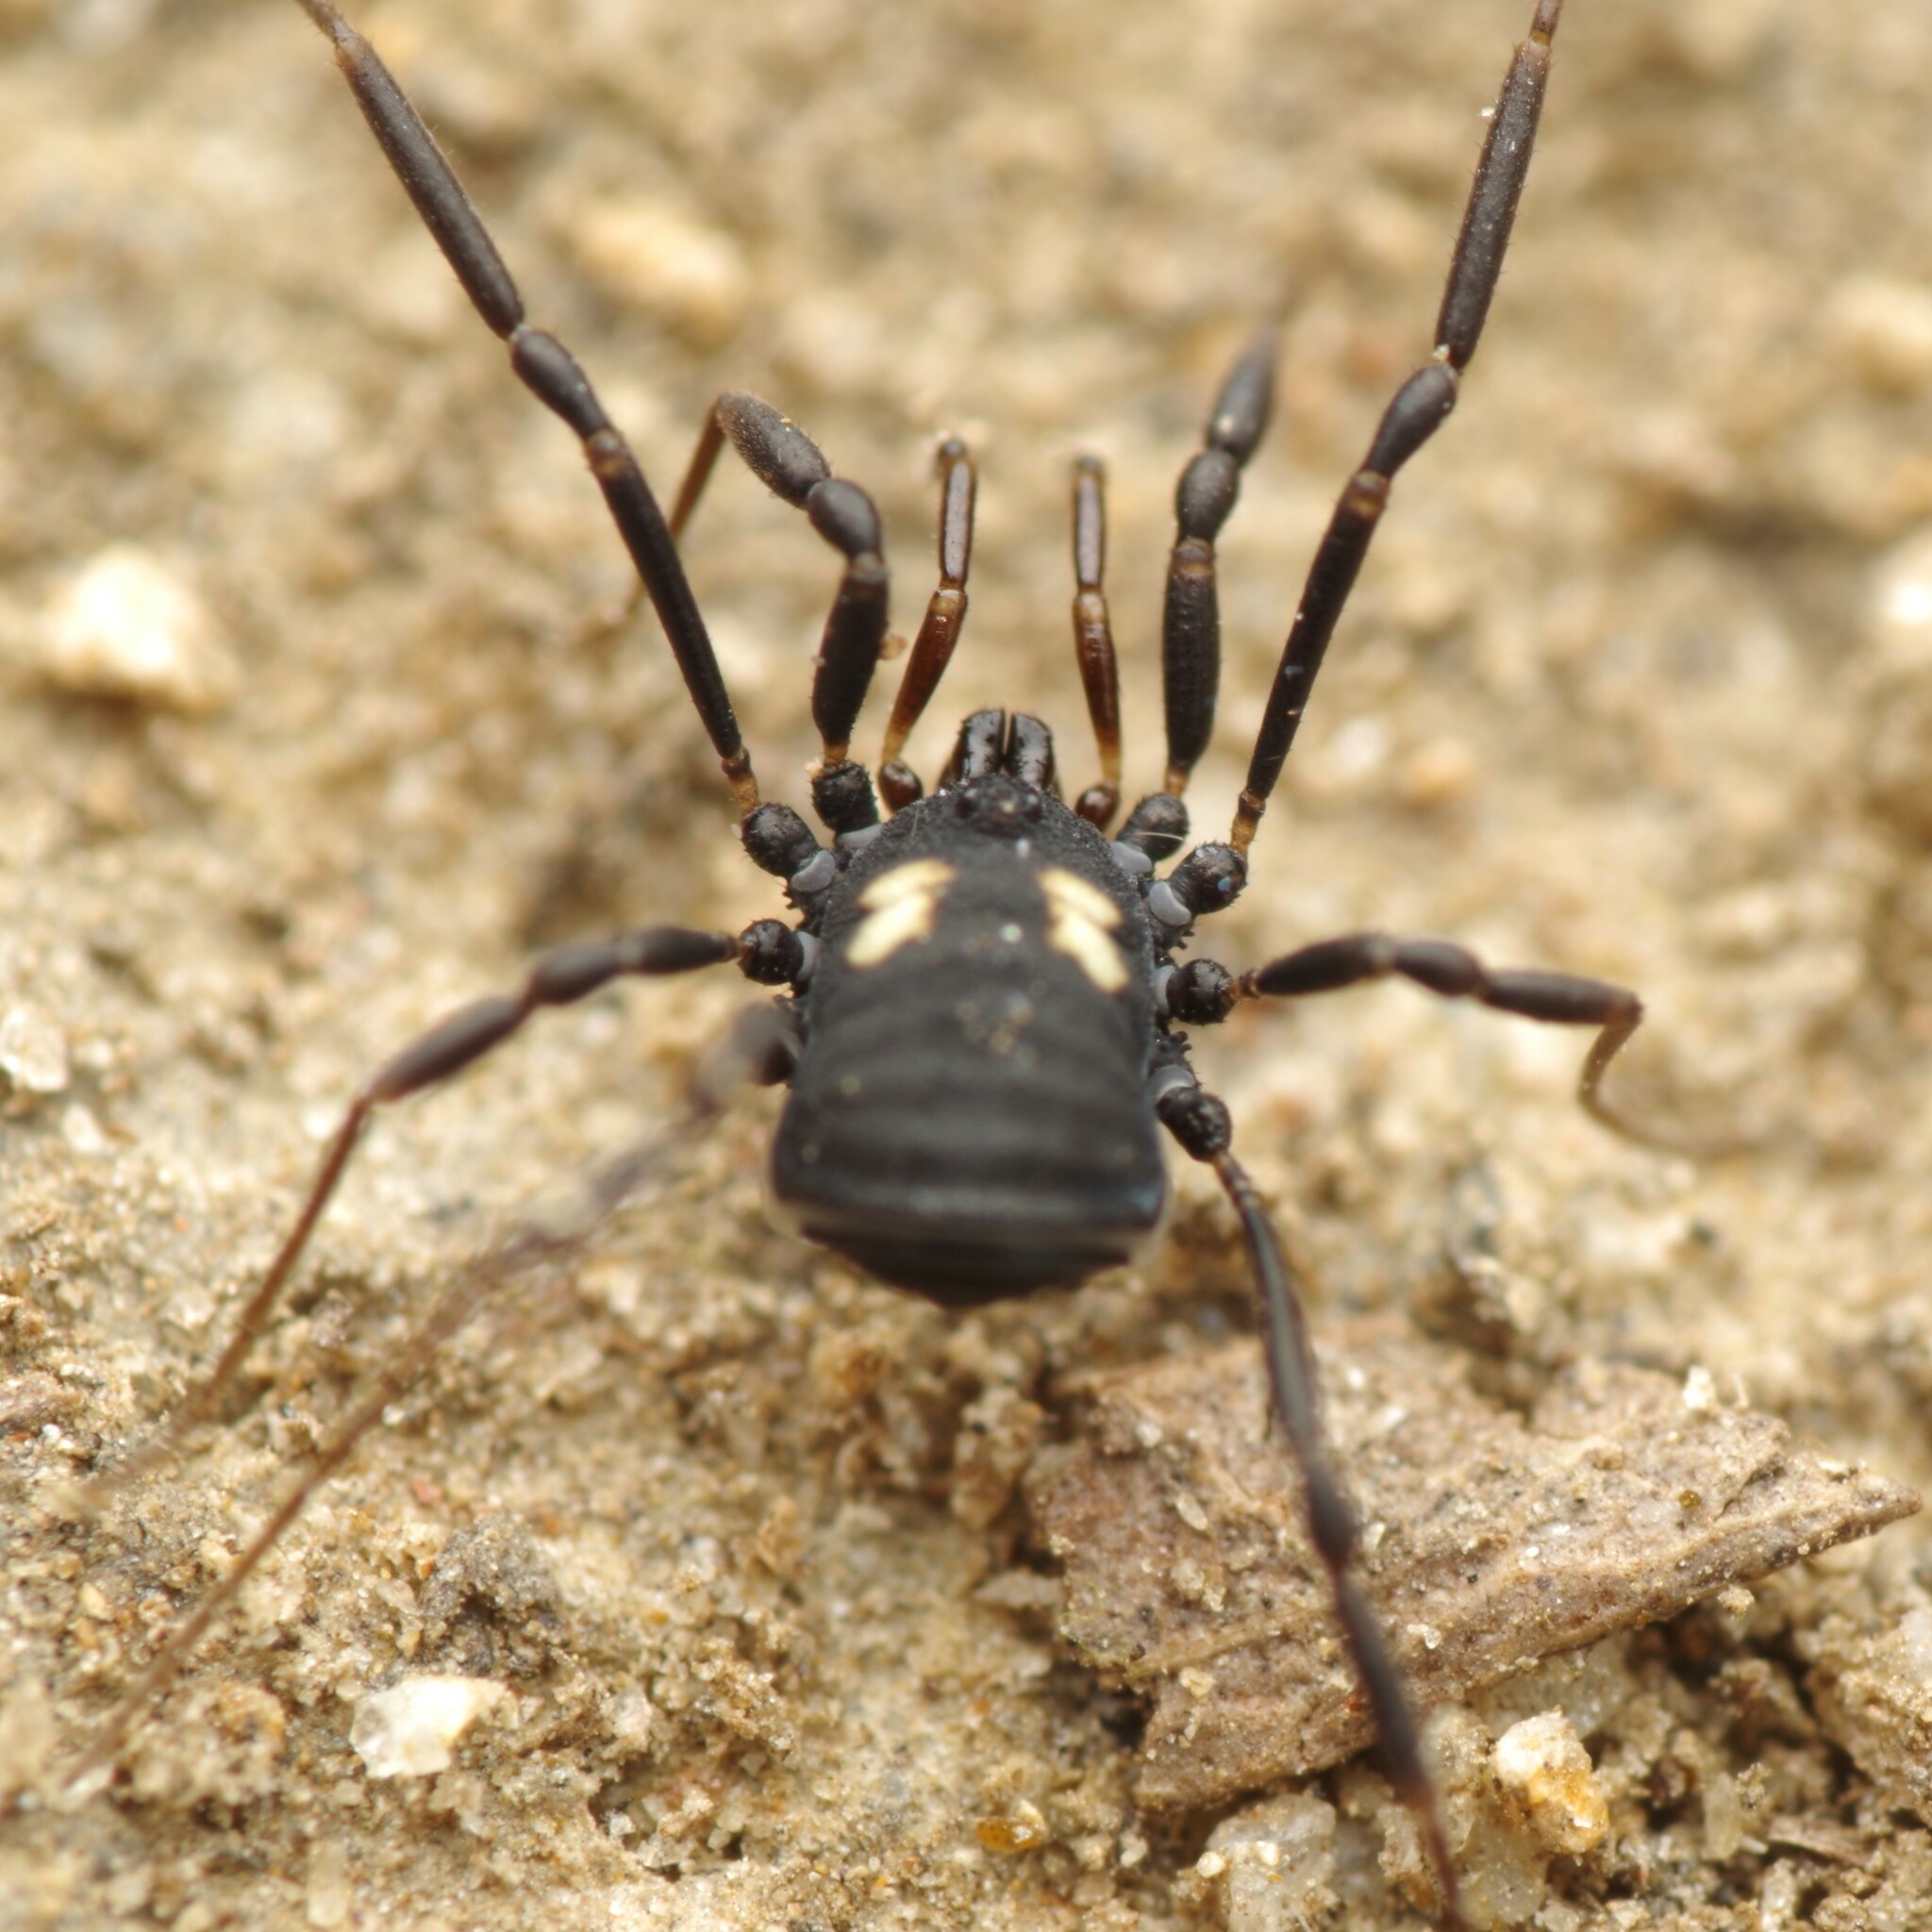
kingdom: Animalia
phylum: Arthropoda
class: Arachnida
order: Opiliones
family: Nemastomatidae
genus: Nemastoma
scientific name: Nemastoma bimaculatum
